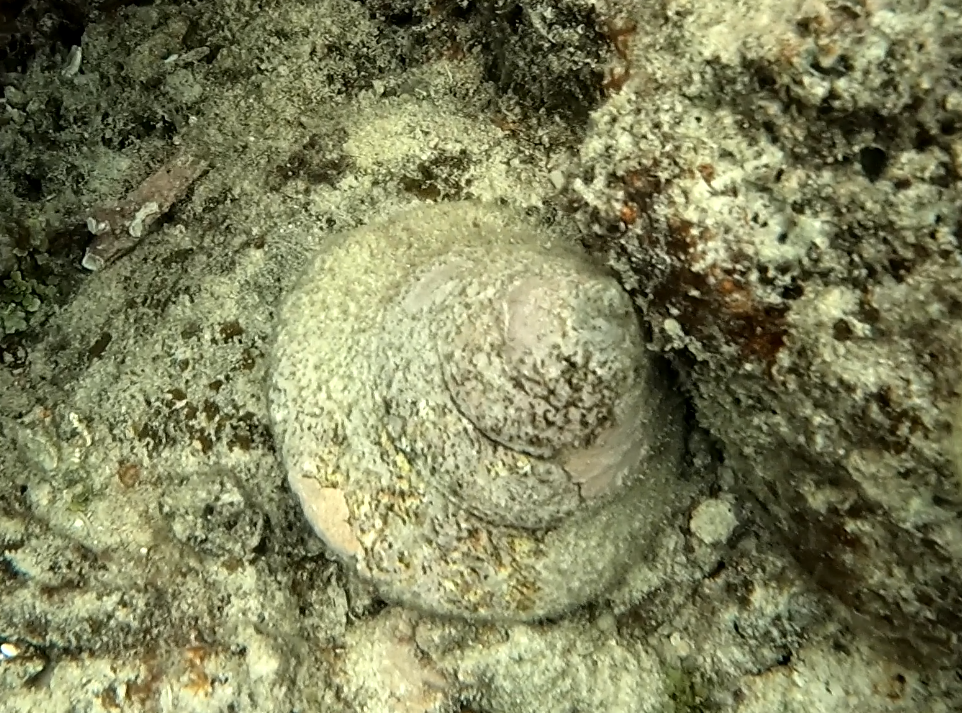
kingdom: Animalia
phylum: Mollusca
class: Gastropoda
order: Trochida
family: Tegulidae
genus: Rochia
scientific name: Rochia nilotica
